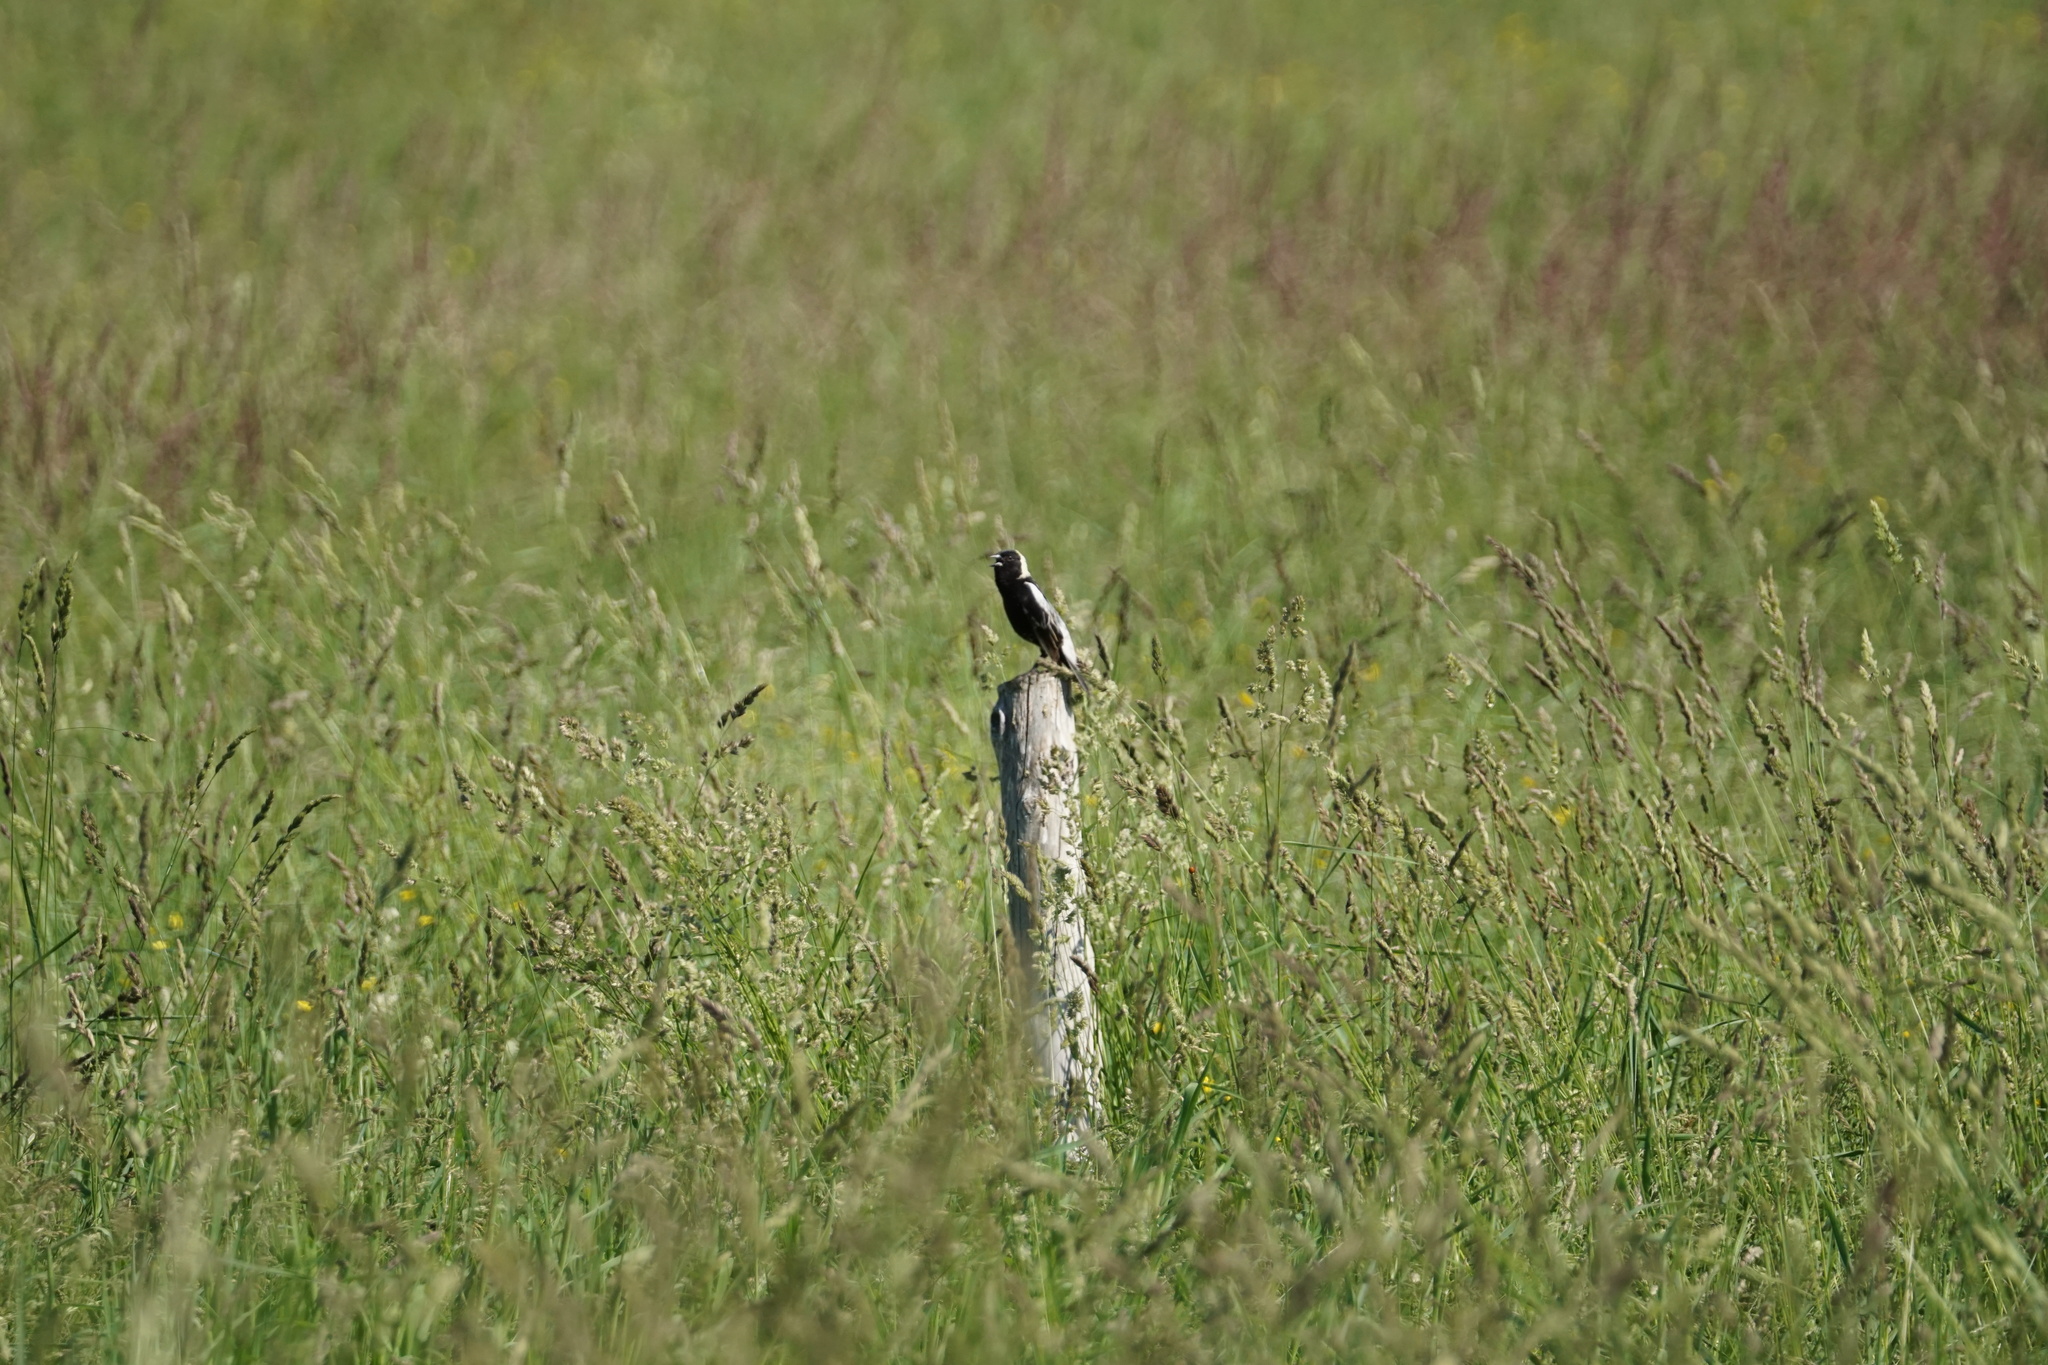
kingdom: Animalia
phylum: Chordata
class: Aves
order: Passeriformes
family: Icteridae
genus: Dolichonyx
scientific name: Dolichonyx oryzivorus
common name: Bobolink
